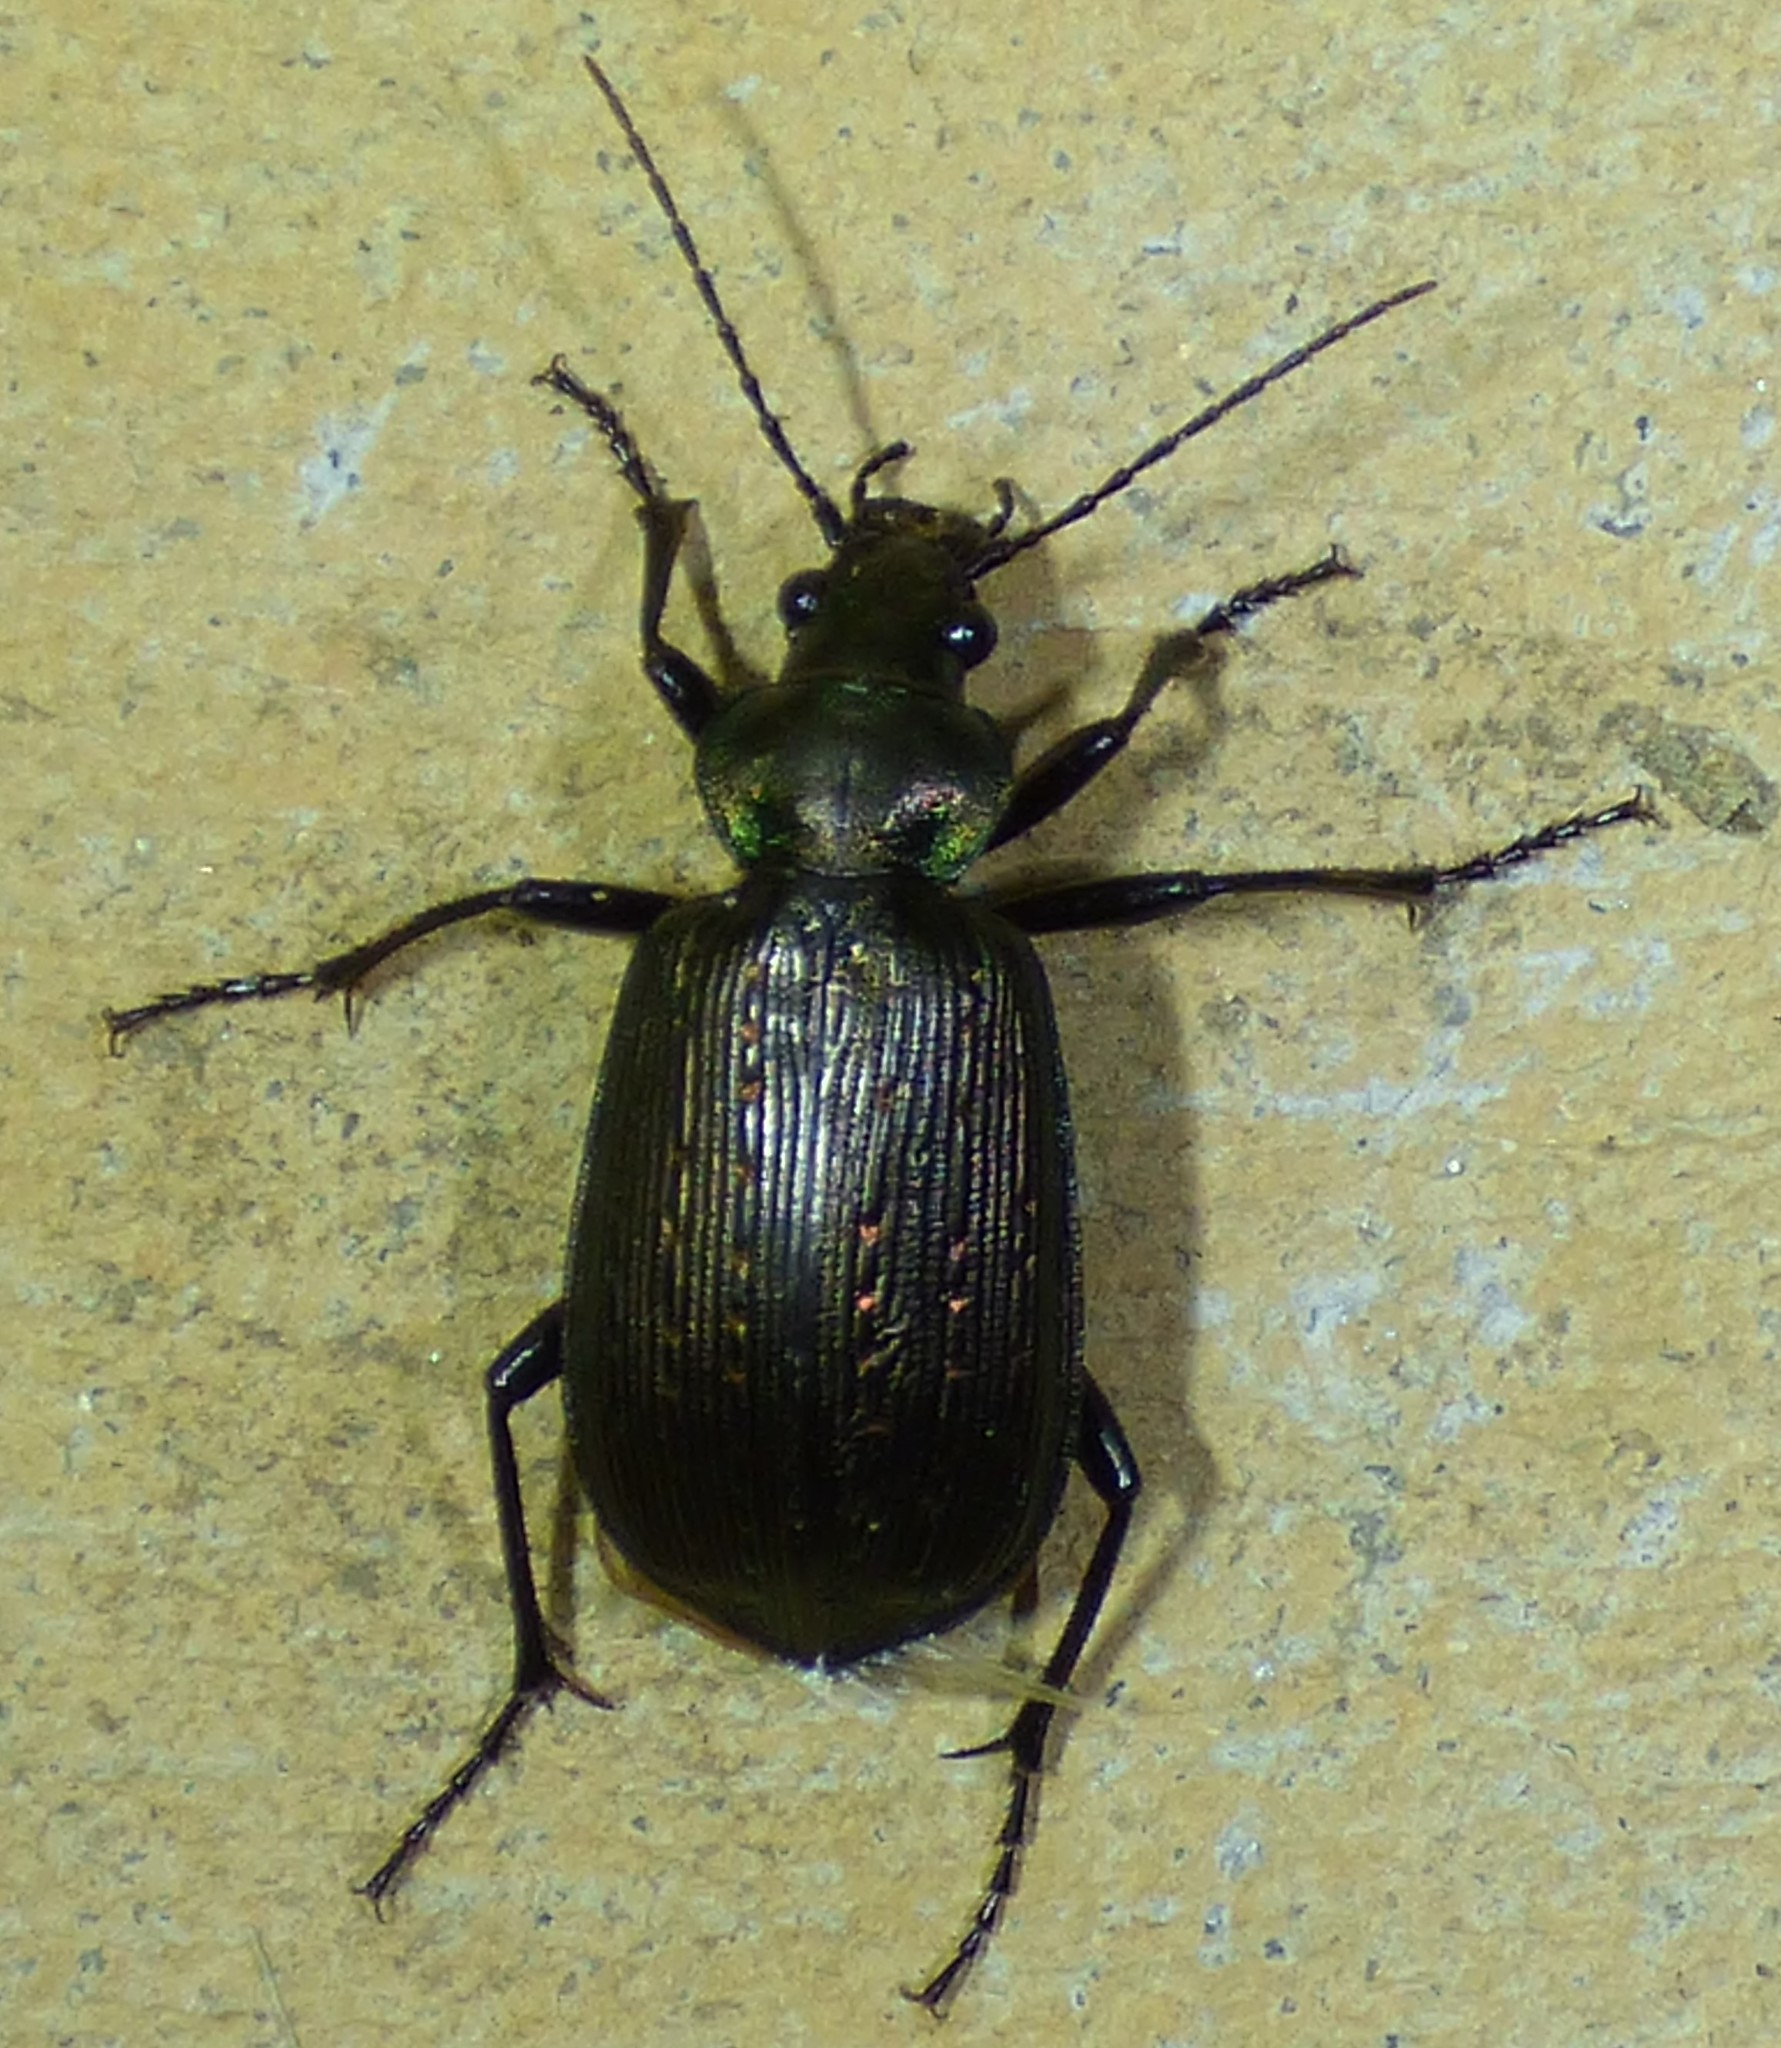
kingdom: Animalia
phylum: Arthropoda
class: Insecta
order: Coleoptera
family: Carabidae
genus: Calosoma
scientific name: Calosoma sayi
